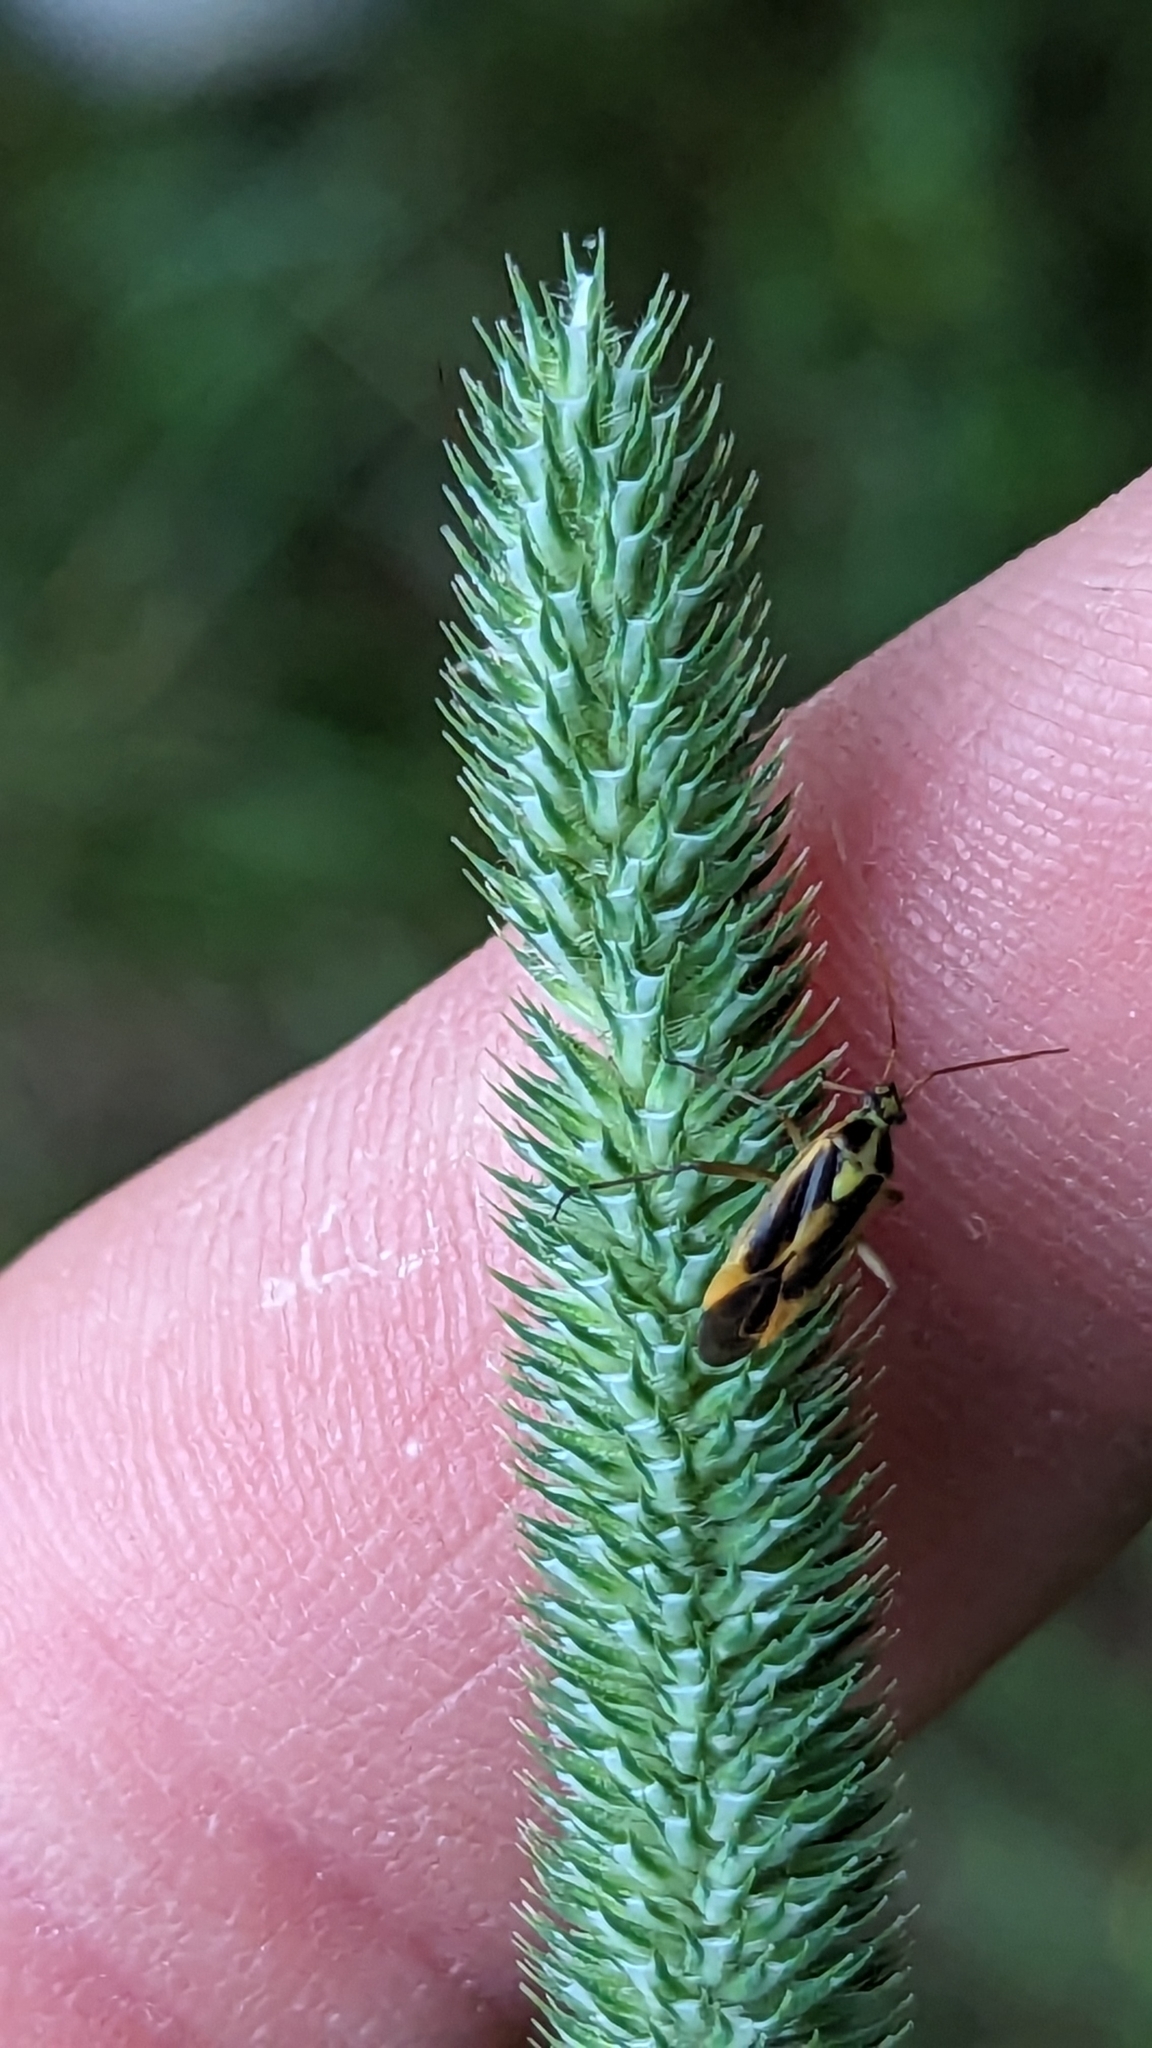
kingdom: Animalia
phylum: Arthropoda
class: Insecta
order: Hemiptera
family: Miridae
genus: Stenotus
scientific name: Stenotus binotatus
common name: Plant bug
